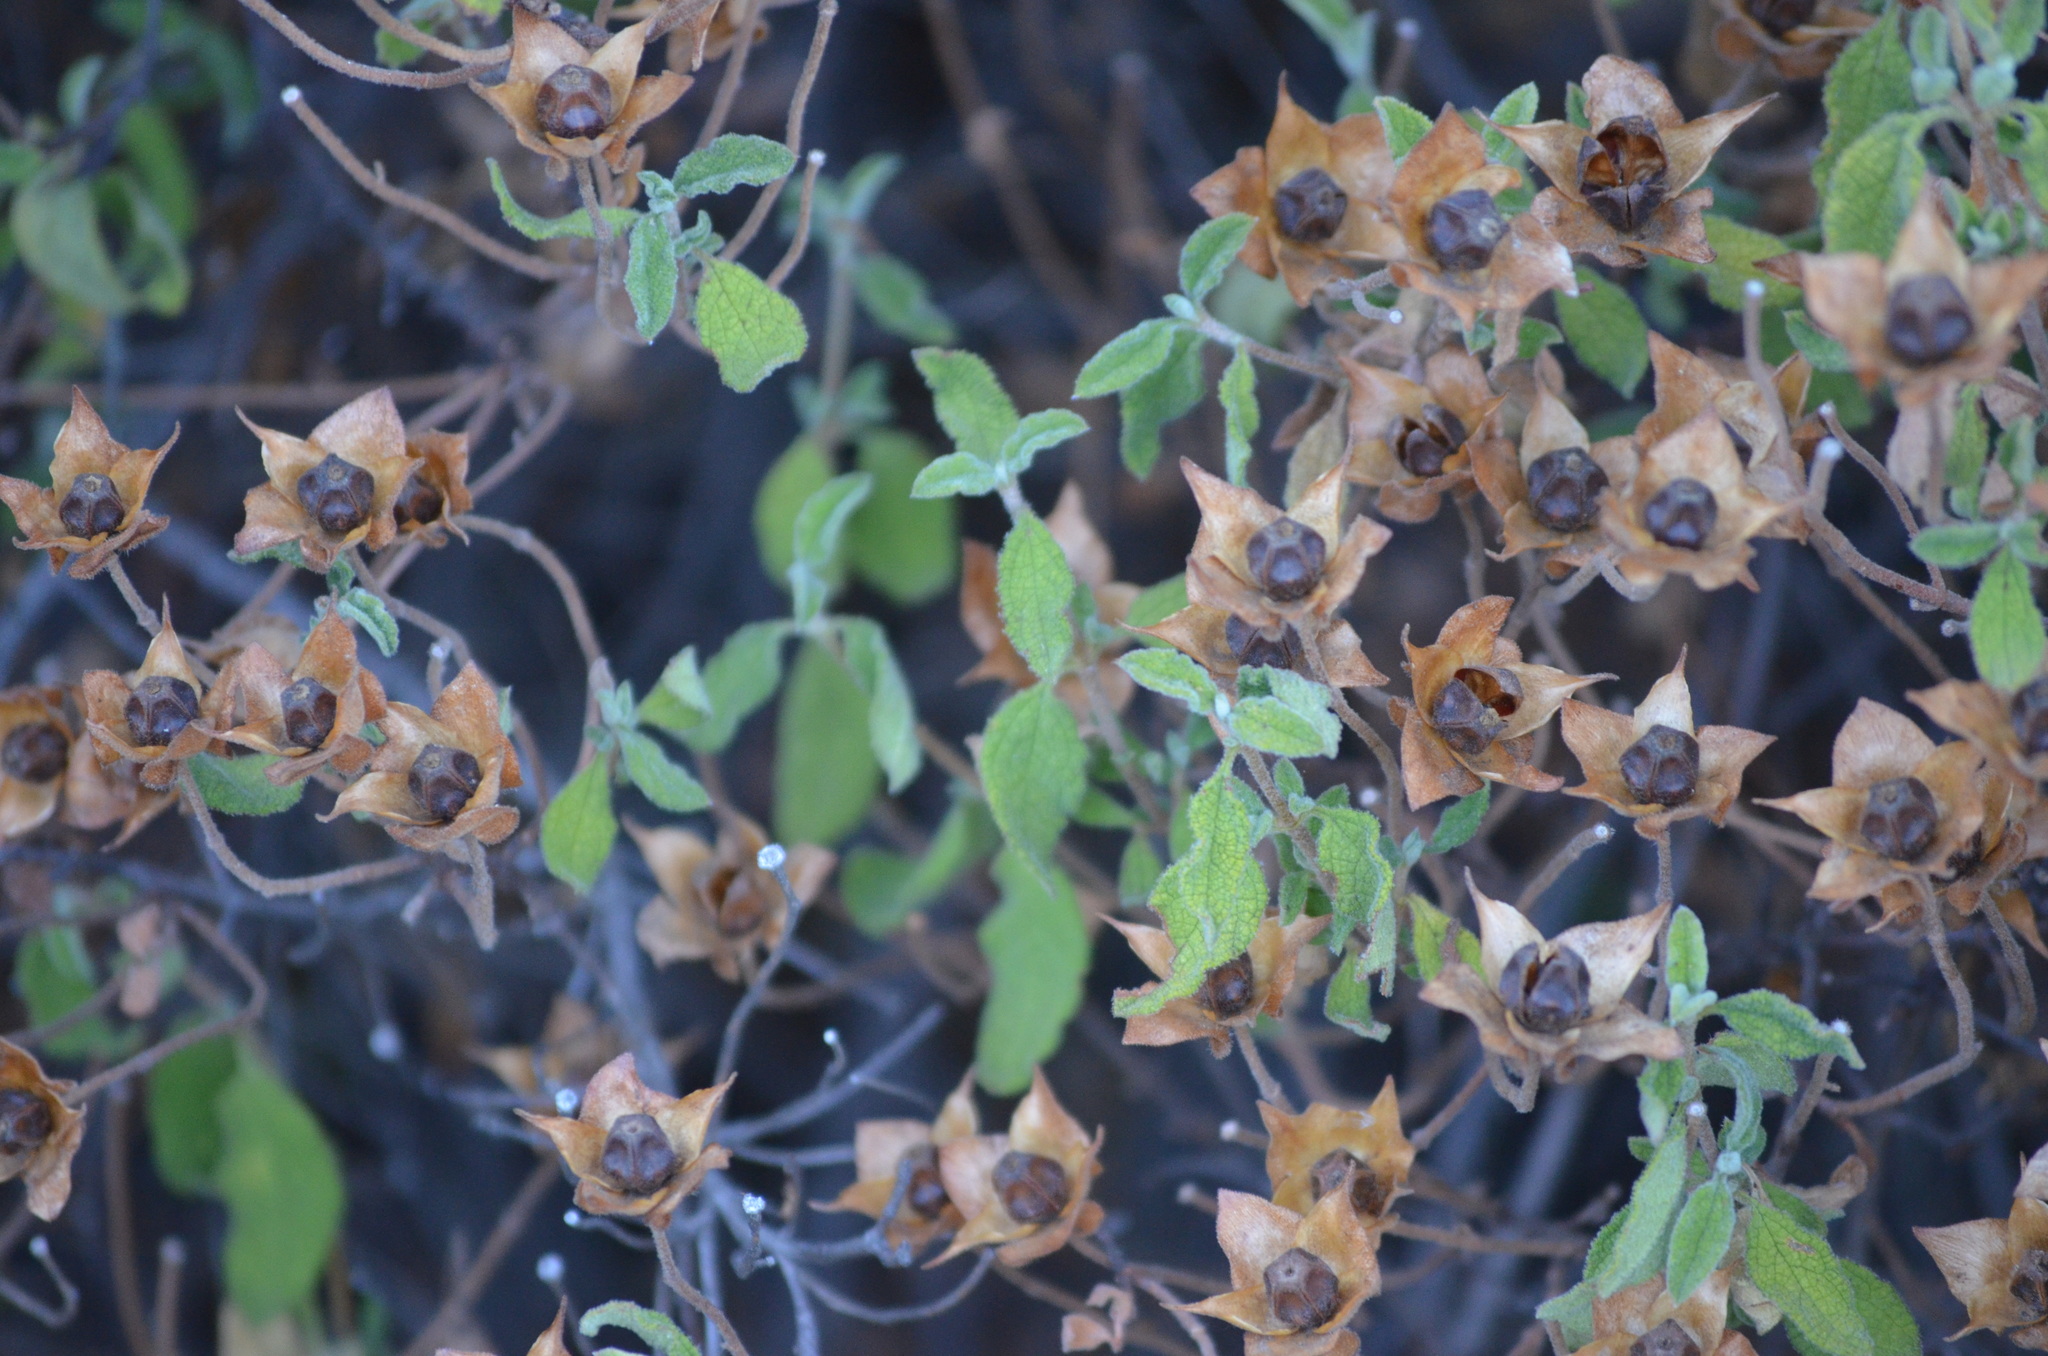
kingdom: Plantae
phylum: Tracheophyta
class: Magnoliopsida
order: Malvales
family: Cistaceae
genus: Cistus
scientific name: Cistus salviifolius
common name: Salvia cistus
